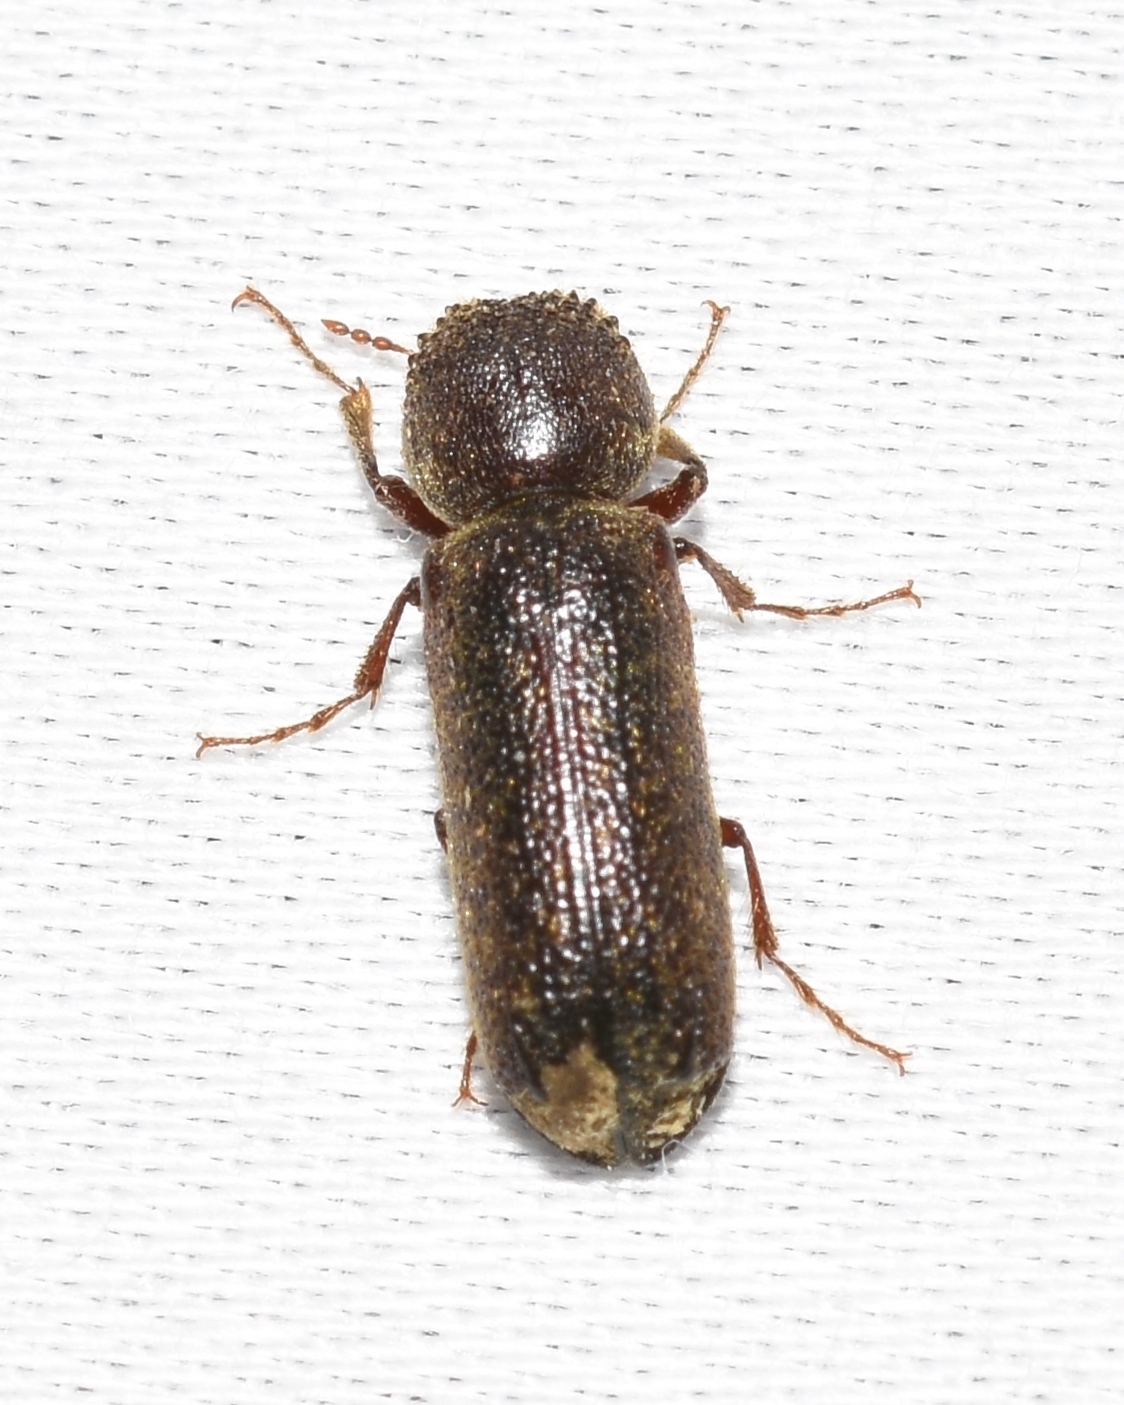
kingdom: Animalia
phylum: Arthropoda
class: Insecta
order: Coleoptera
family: Bostrichidae
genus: Amphicerus
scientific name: Amphicerus bicaudatus
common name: Apple twig borer
